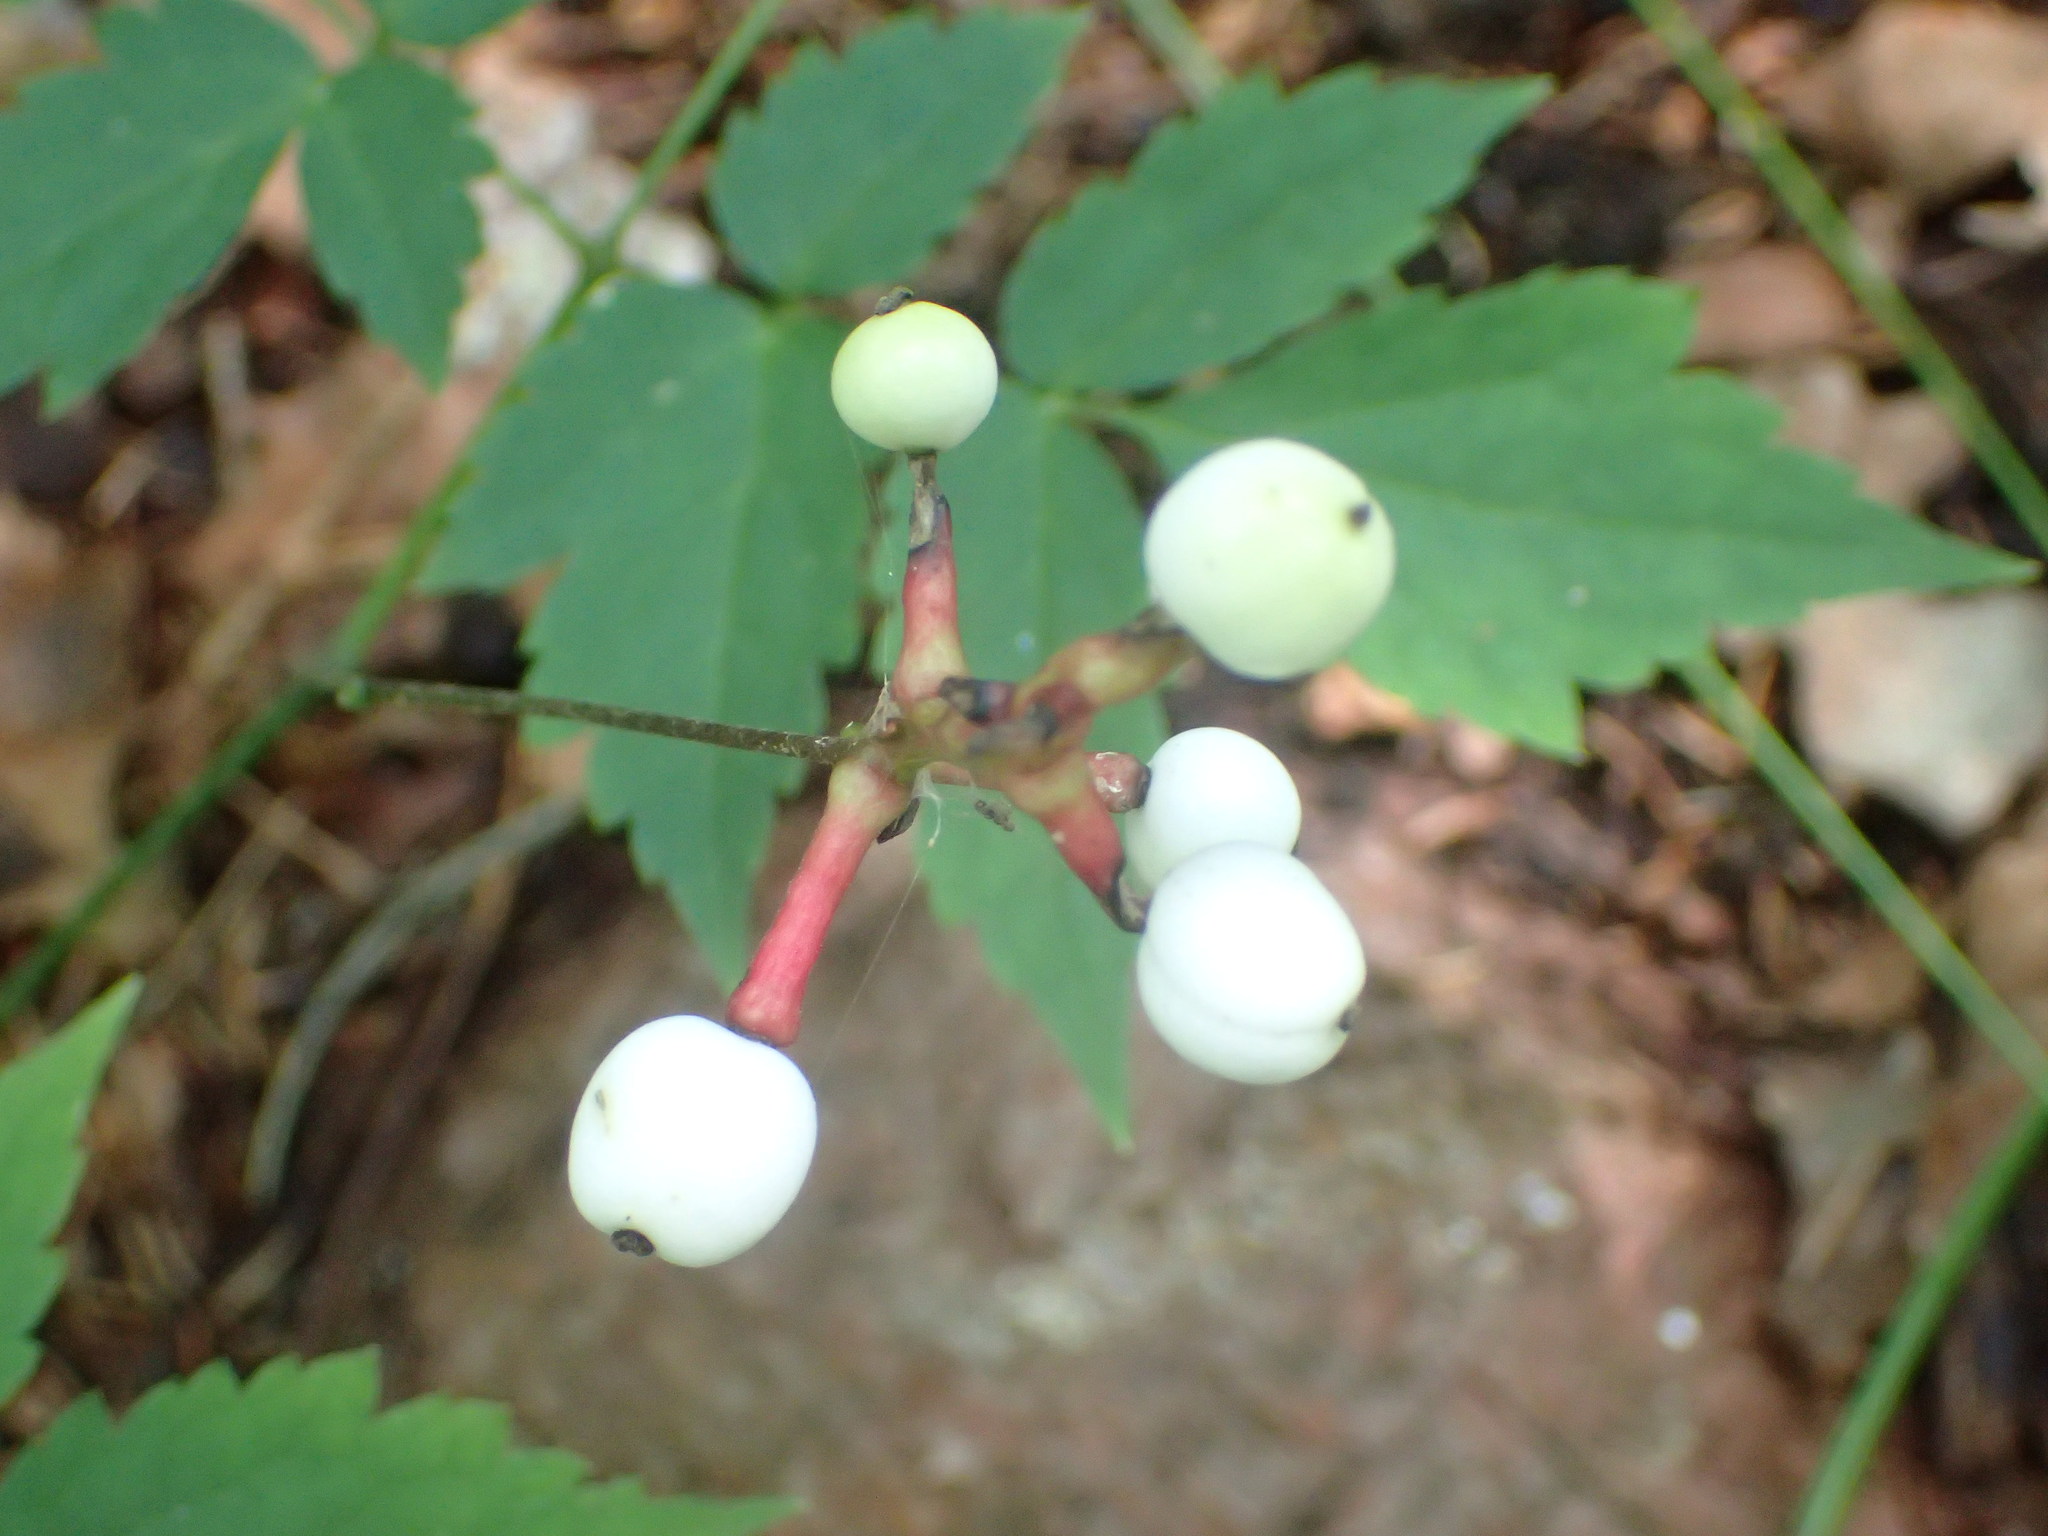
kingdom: Plantae
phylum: Tracheophyta
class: Magnoliopsida
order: Ranunculales
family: Ranunculaceae
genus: Actaea
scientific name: Actaea pachypoda
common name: Doll's-eyes
